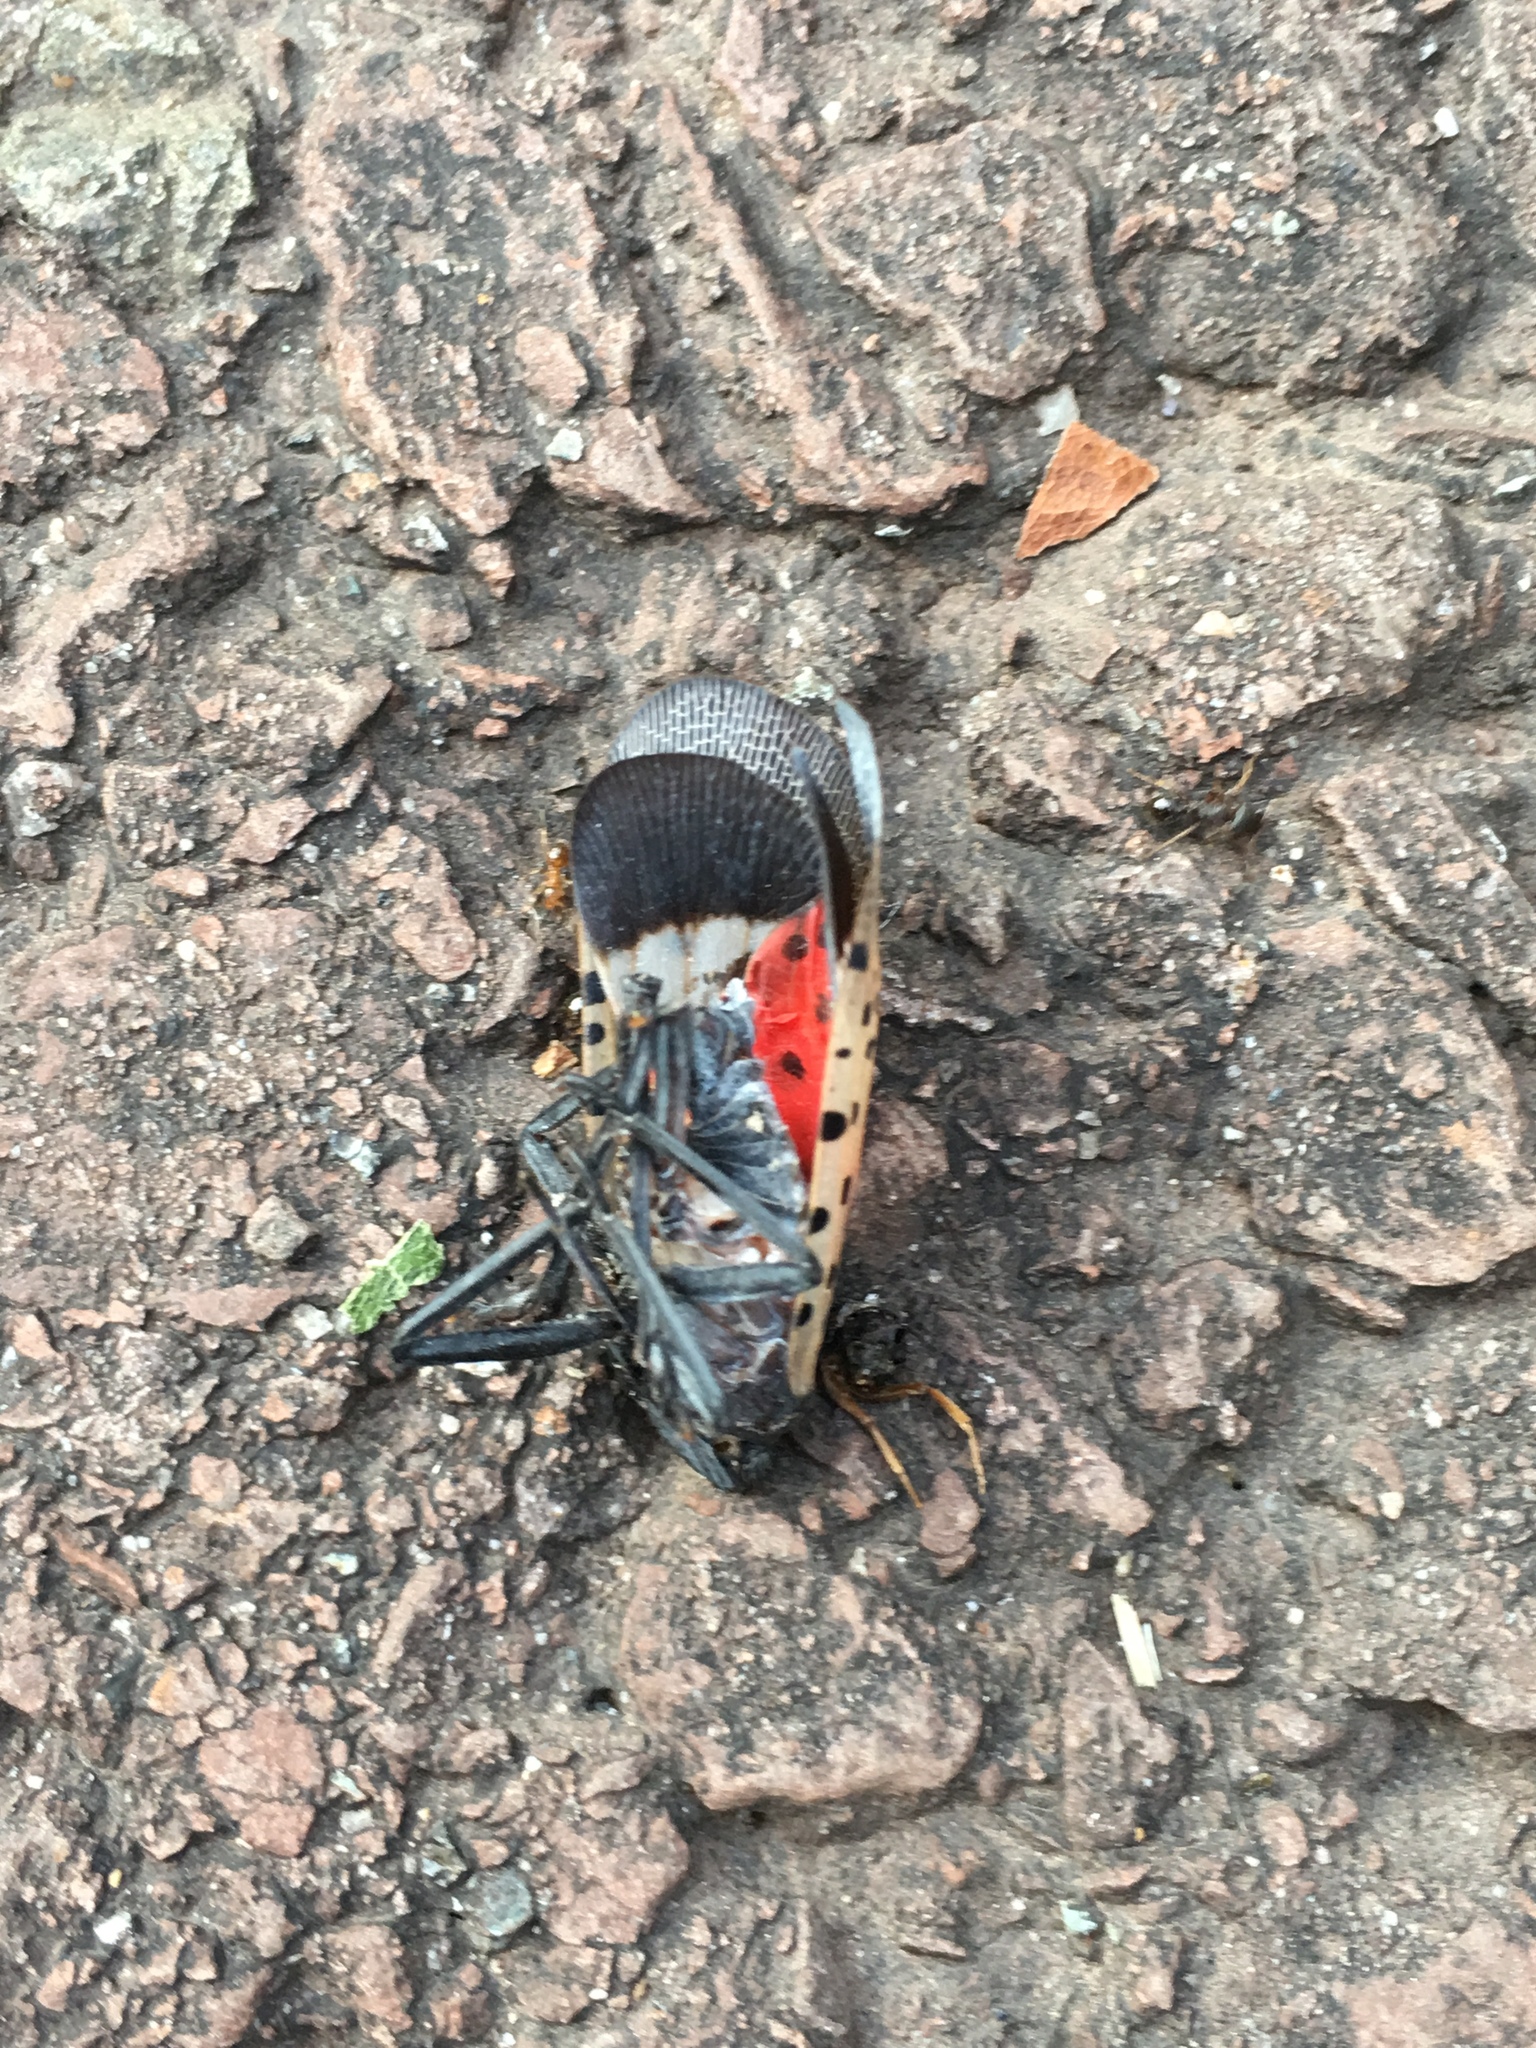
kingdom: Animalia
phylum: Arthropoda
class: Insecta
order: Hemiptera
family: Fulgoridae
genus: Lycorma
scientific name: Lycorma delicatula
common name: Spotted lanternfly
